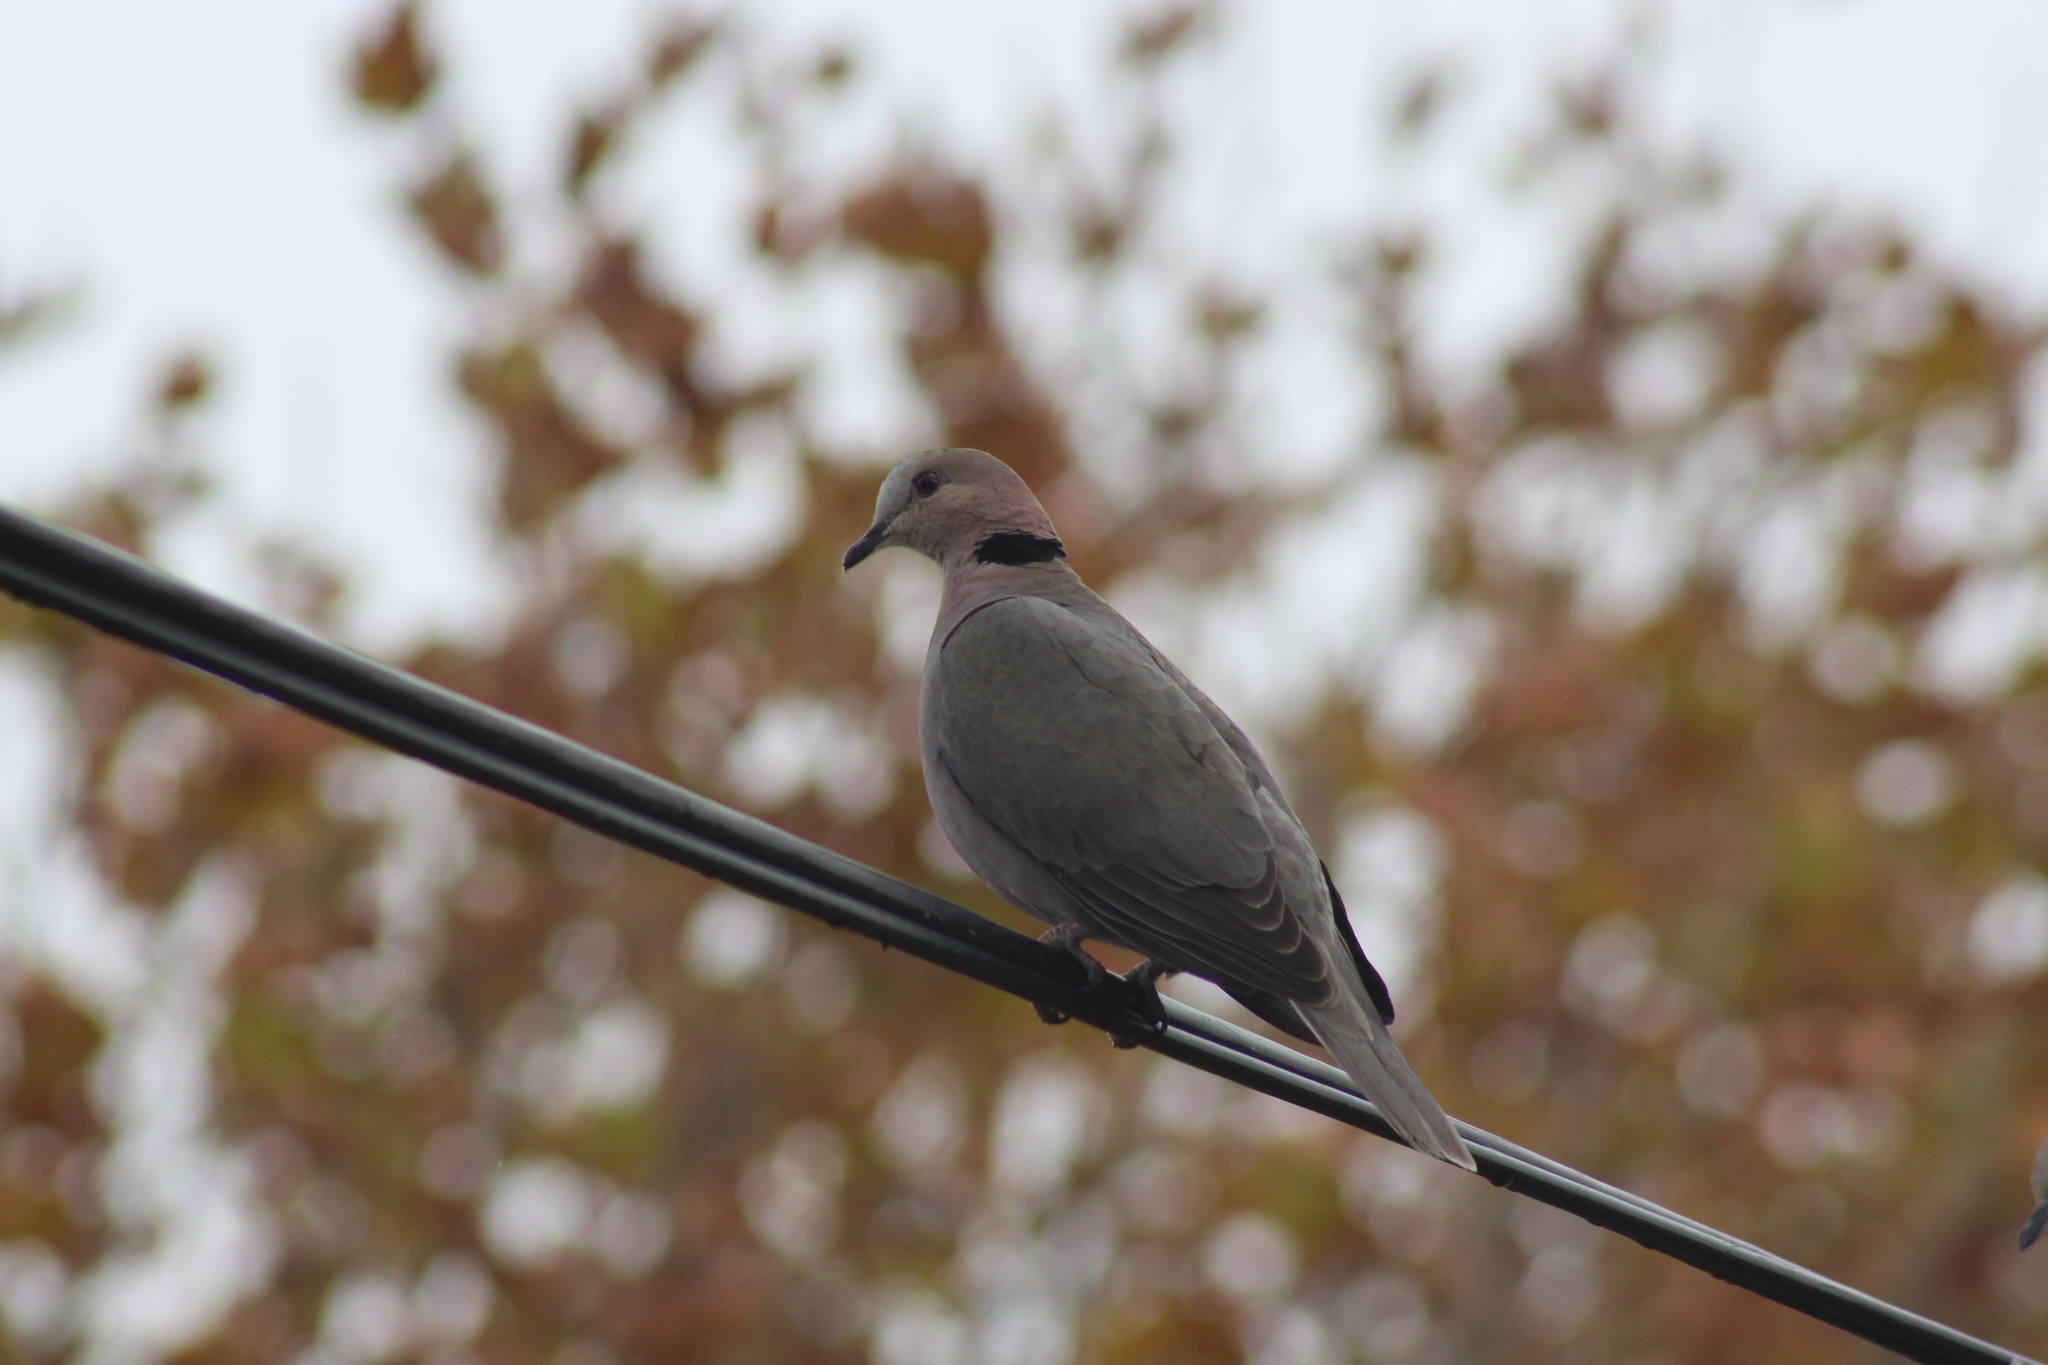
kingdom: Animalia
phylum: Chordata
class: Aves
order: Columbiformes
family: Columbidae
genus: Streptopelia
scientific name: Streptopelia semitorquata
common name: Red-eyed dove
